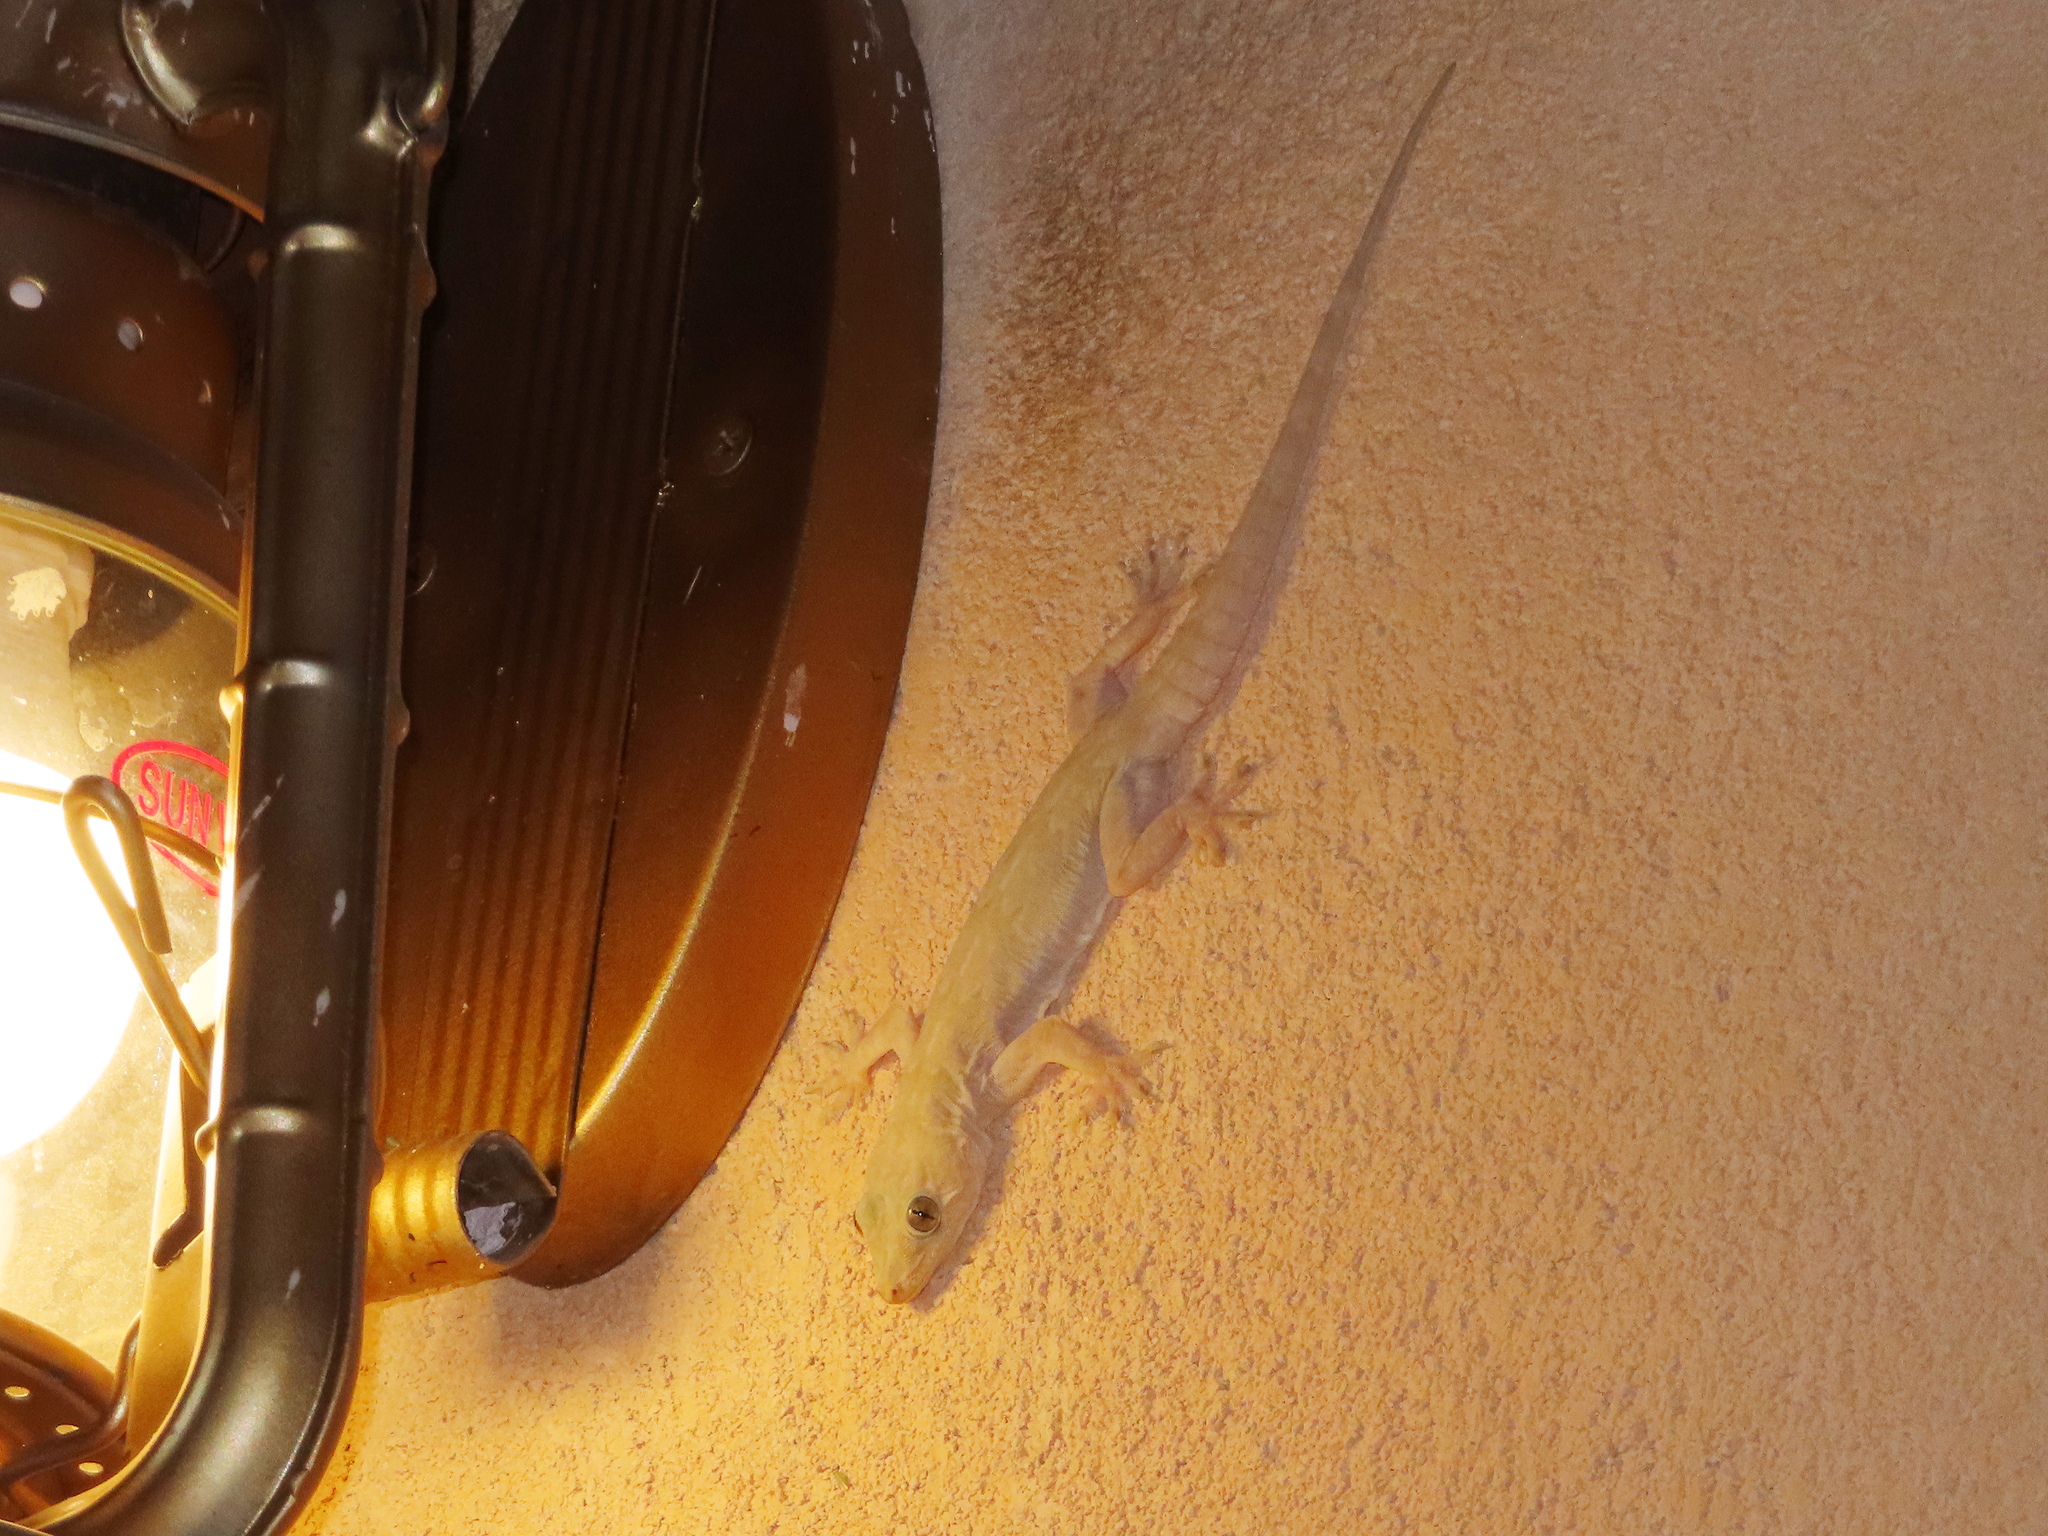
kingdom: Animalia
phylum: Chordata
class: Squamata
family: Gekkonidae
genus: Hemidactylus
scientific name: Hemidactylus flaviviridis
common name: Northern house gecko
